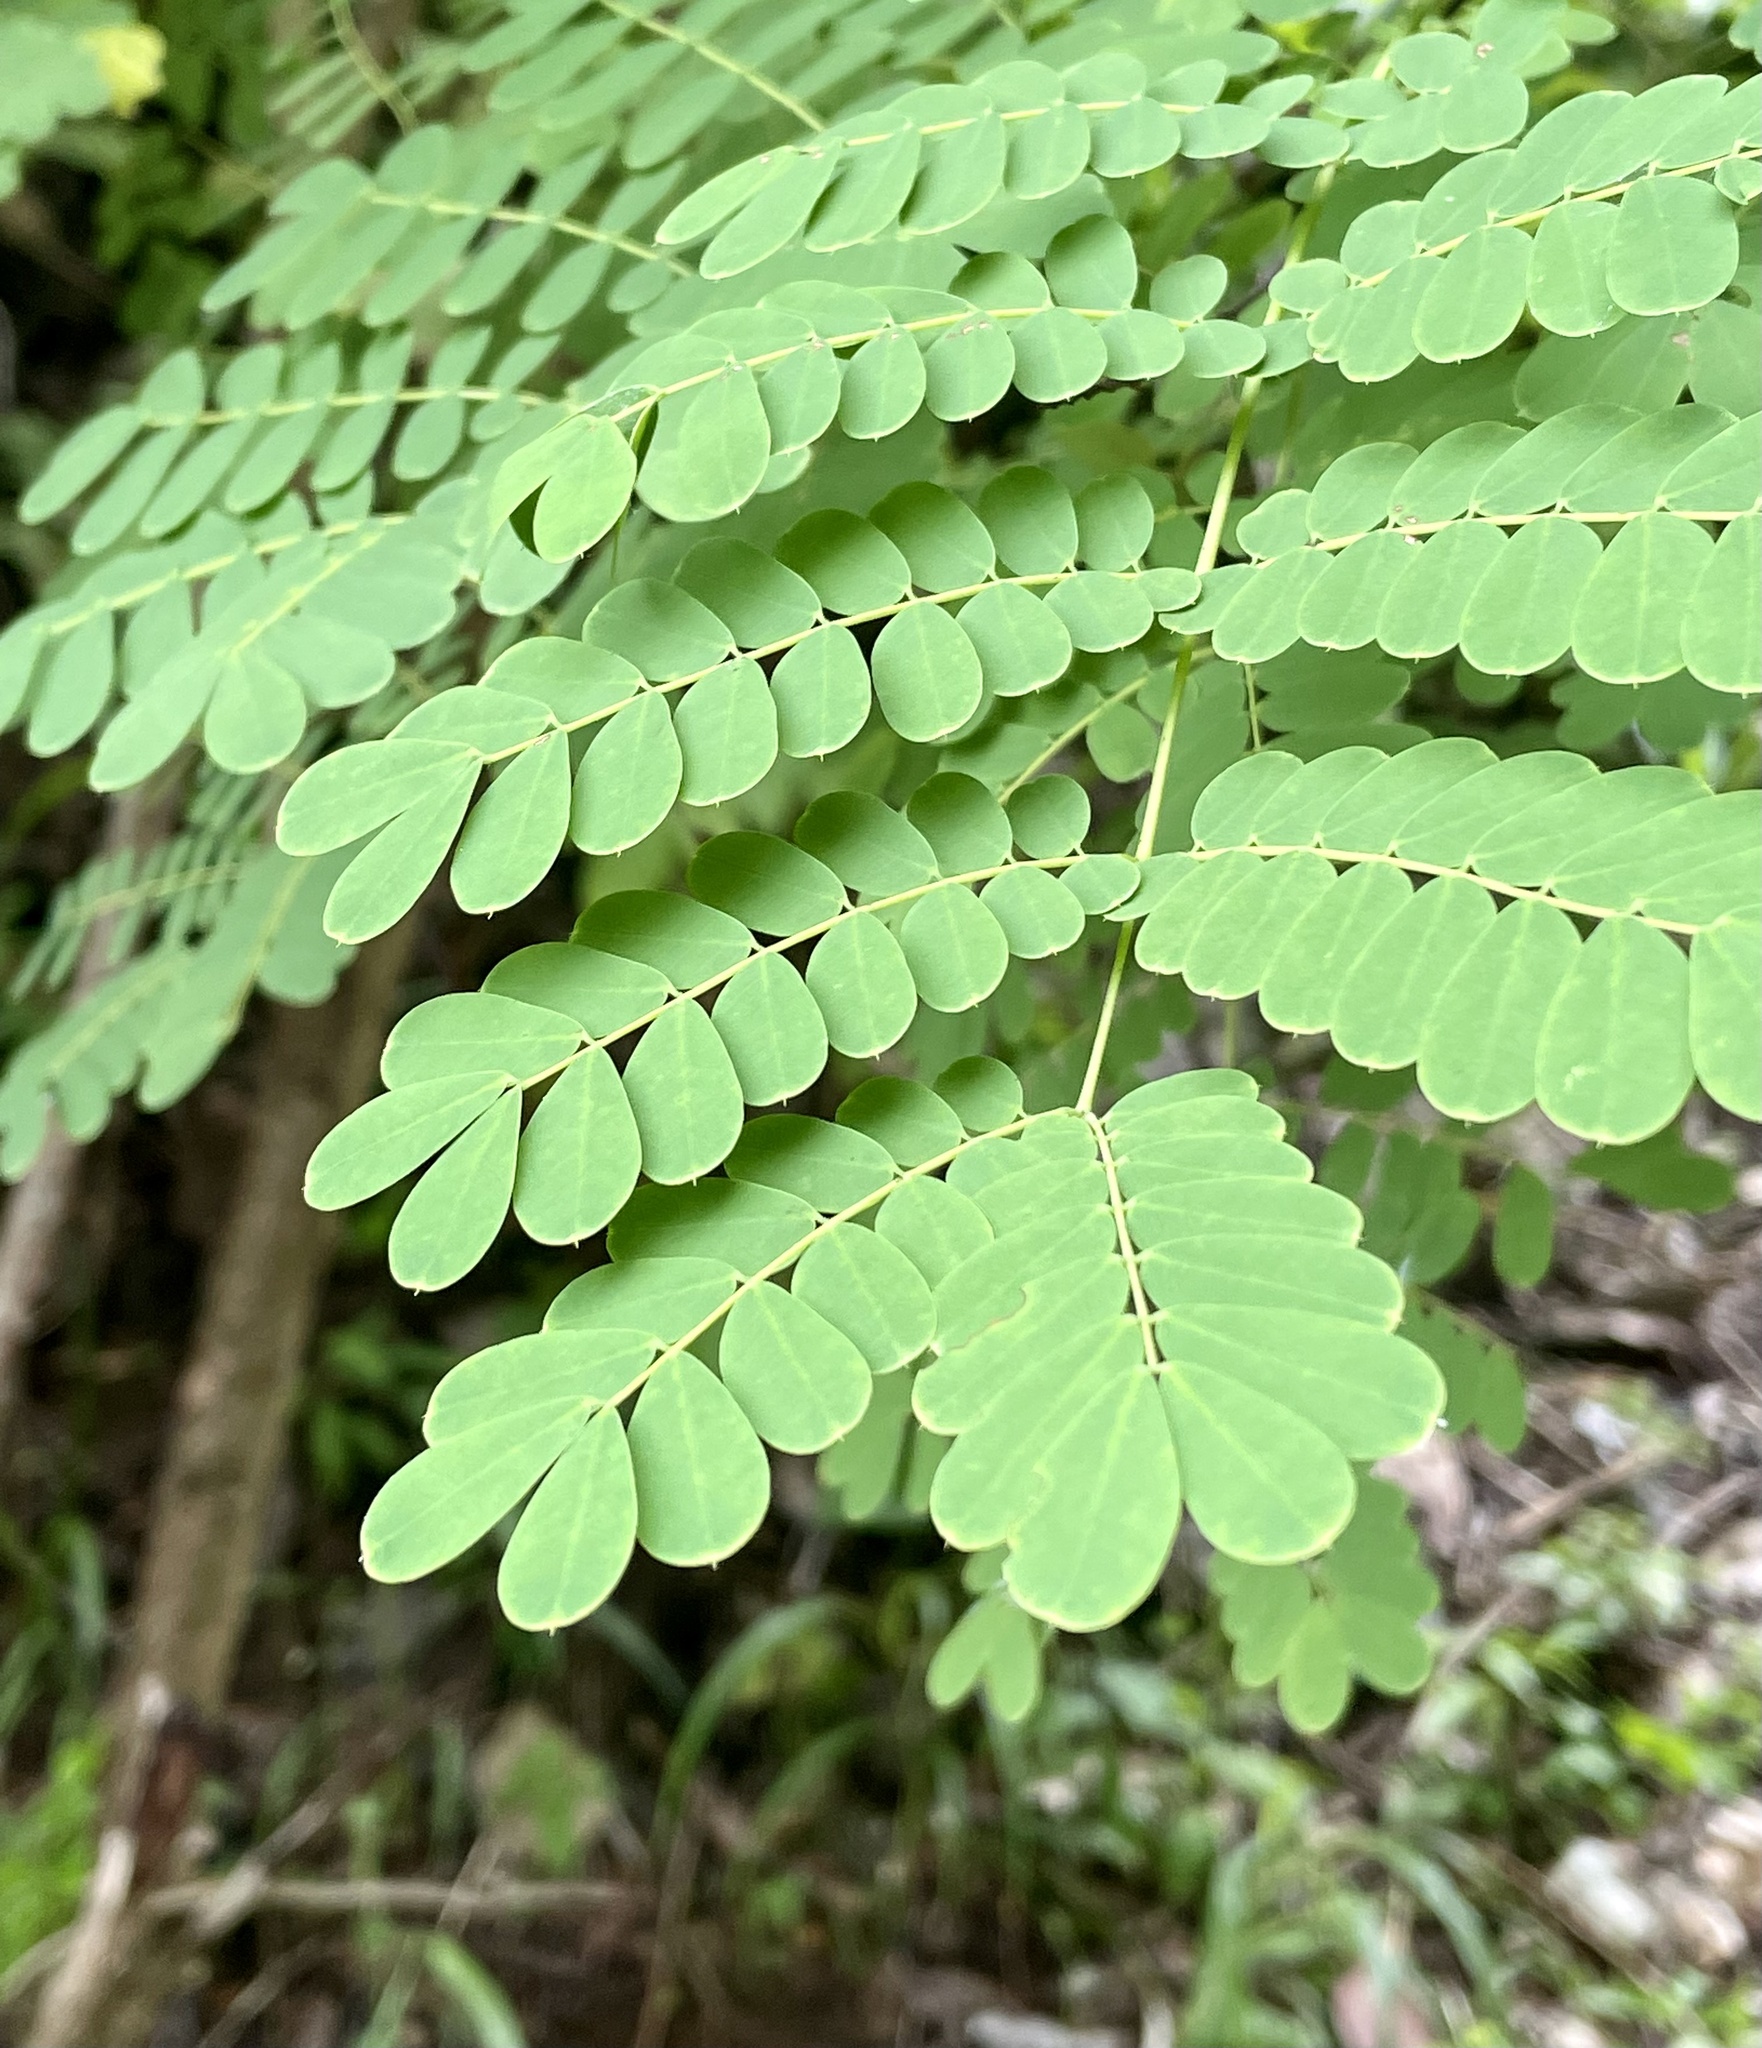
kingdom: Plantae
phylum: Tracheophyta
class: Magnoliopsida
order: Fabales
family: Fabaceae
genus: Caesalpinia
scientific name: Caesalpinia pulcherrima
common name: Pride-of-barbados
